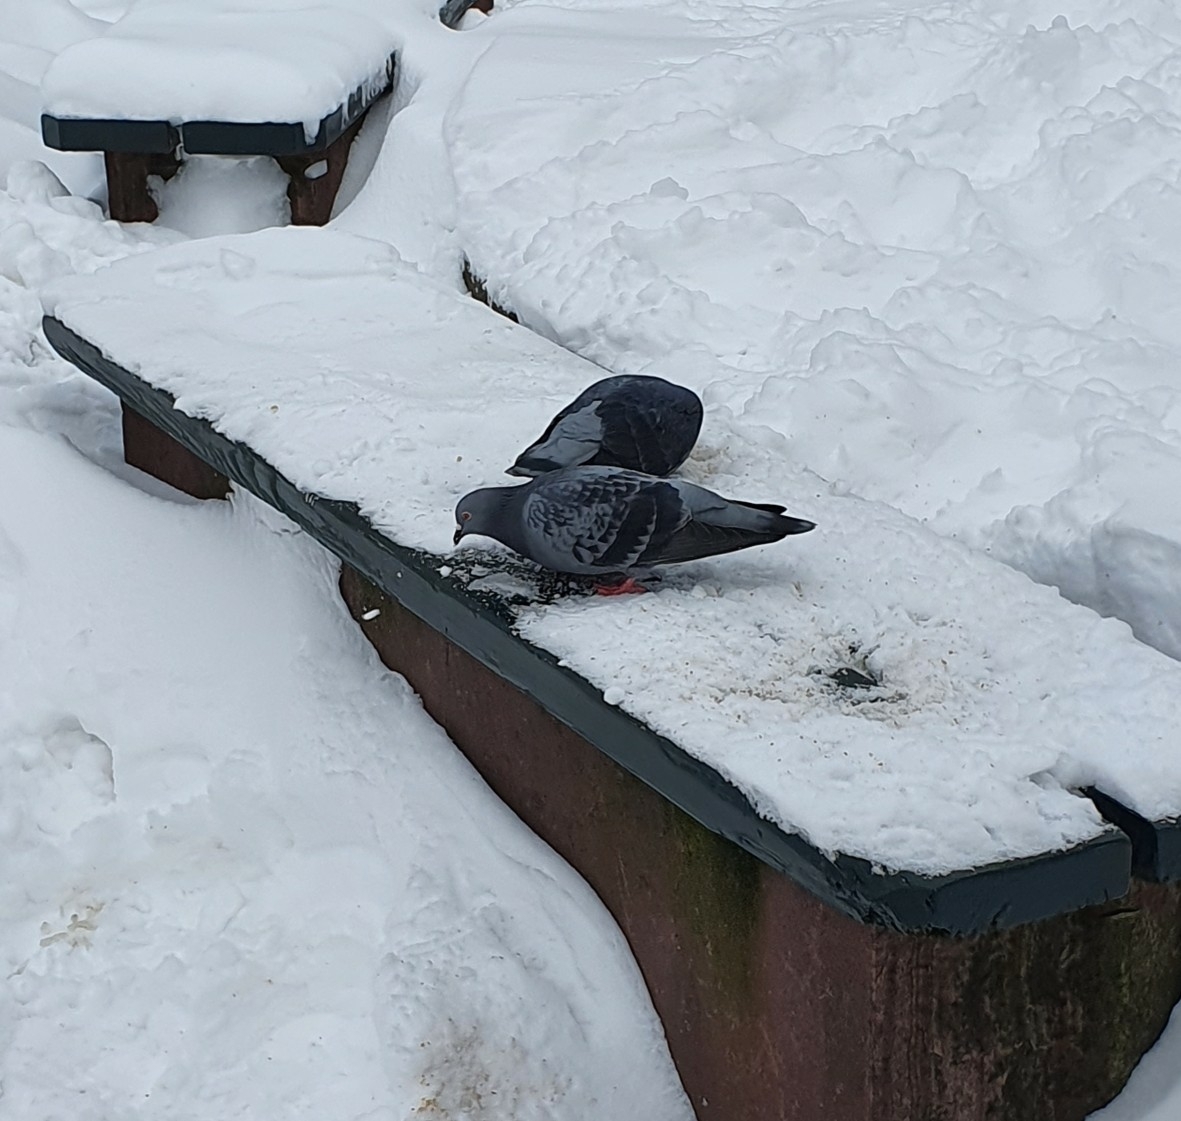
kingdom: Animalia
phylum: Chordata
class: Aves
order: Columbiformes
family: Columbidae
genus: Columba
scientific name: Columba livia
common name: Rock pigeon
